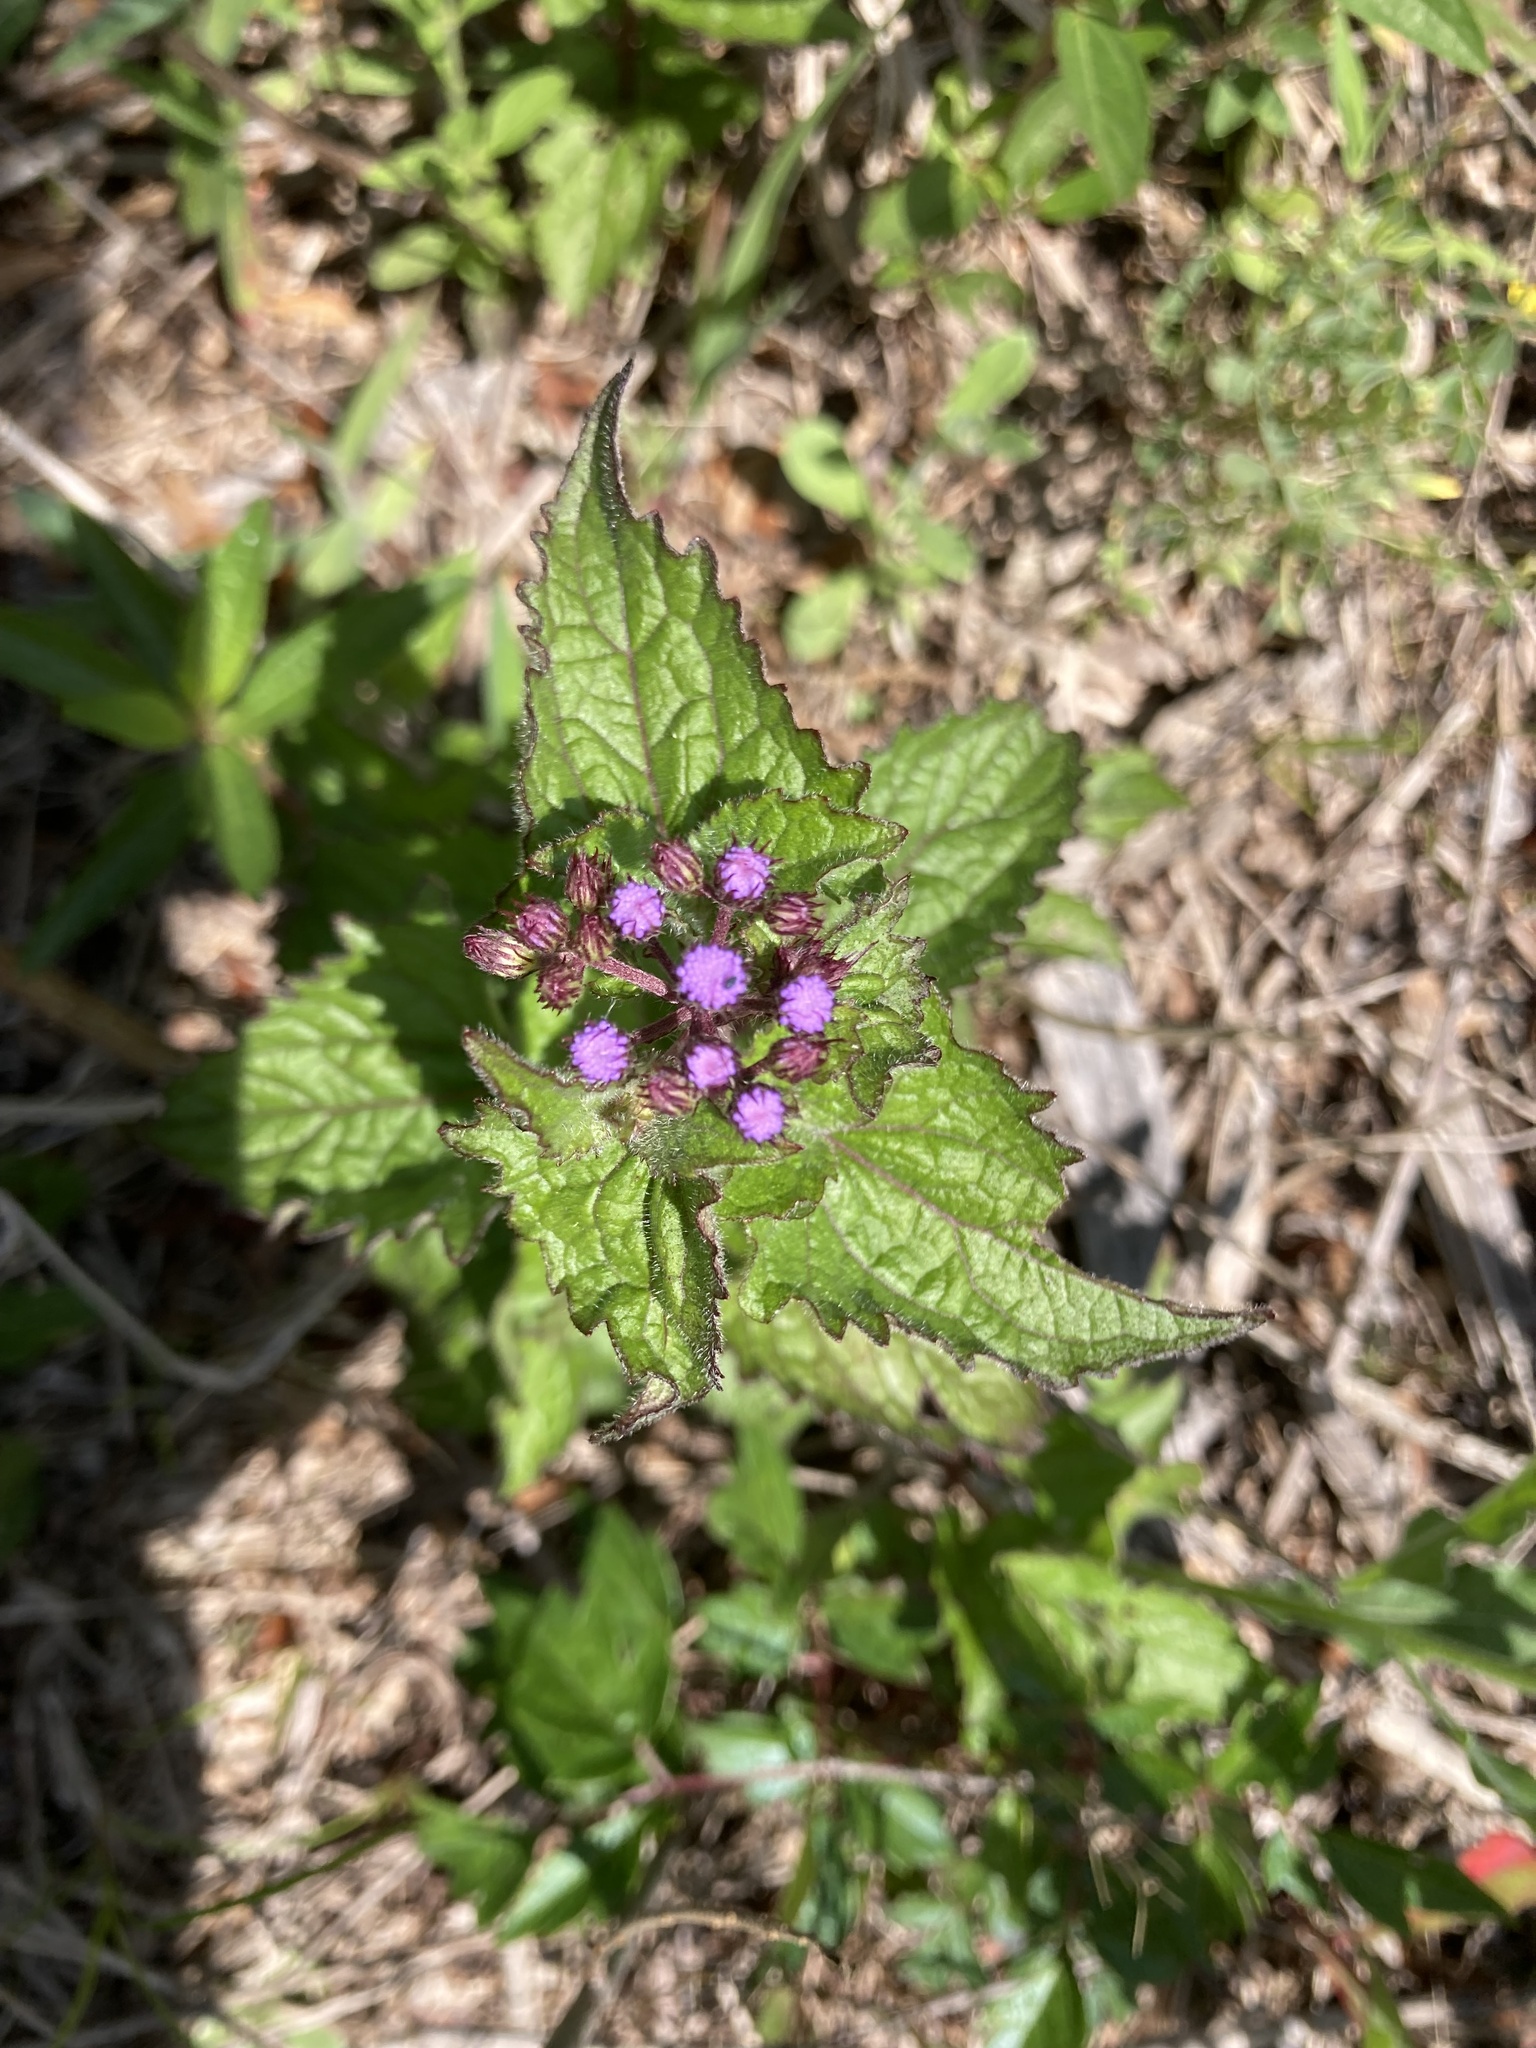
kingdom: Plantae
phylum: Tracheophyta
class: Magnoliopsida
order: Asterales
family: Asteraceae
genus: Conoclinium
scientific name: Conoclinium coelestinum
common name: Blue mistflower
